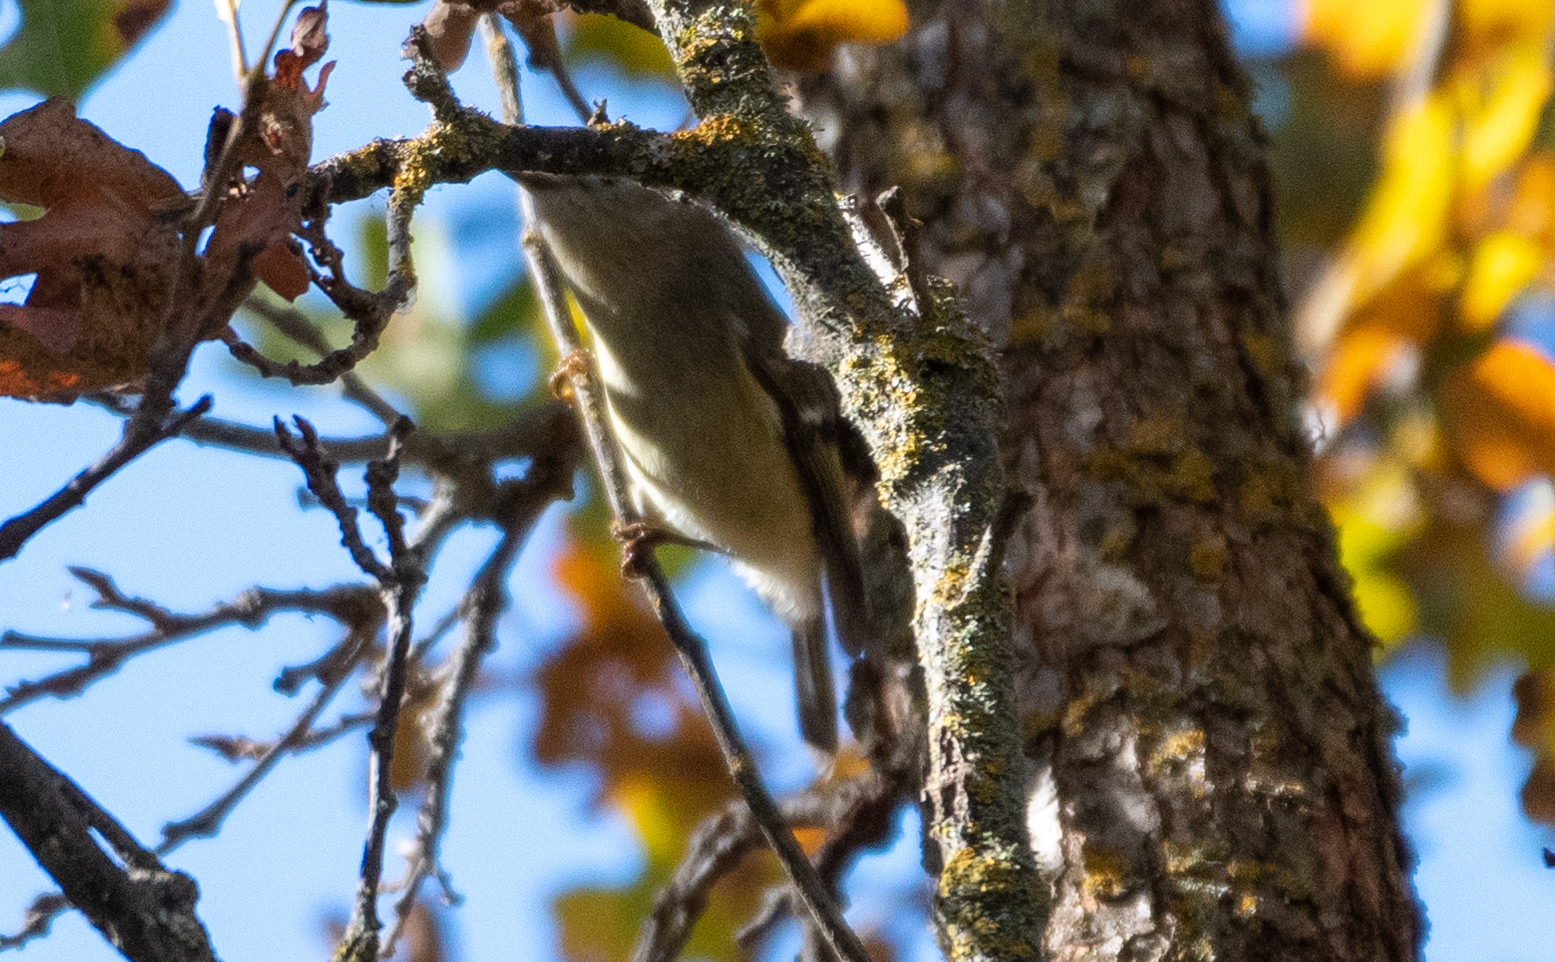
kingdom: Animalia
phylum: Chordata
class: Aves
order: Passeriformes
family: Regulidae
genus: Regulus
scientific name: Regulus calendula
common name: Ruby-crowned kinglet
